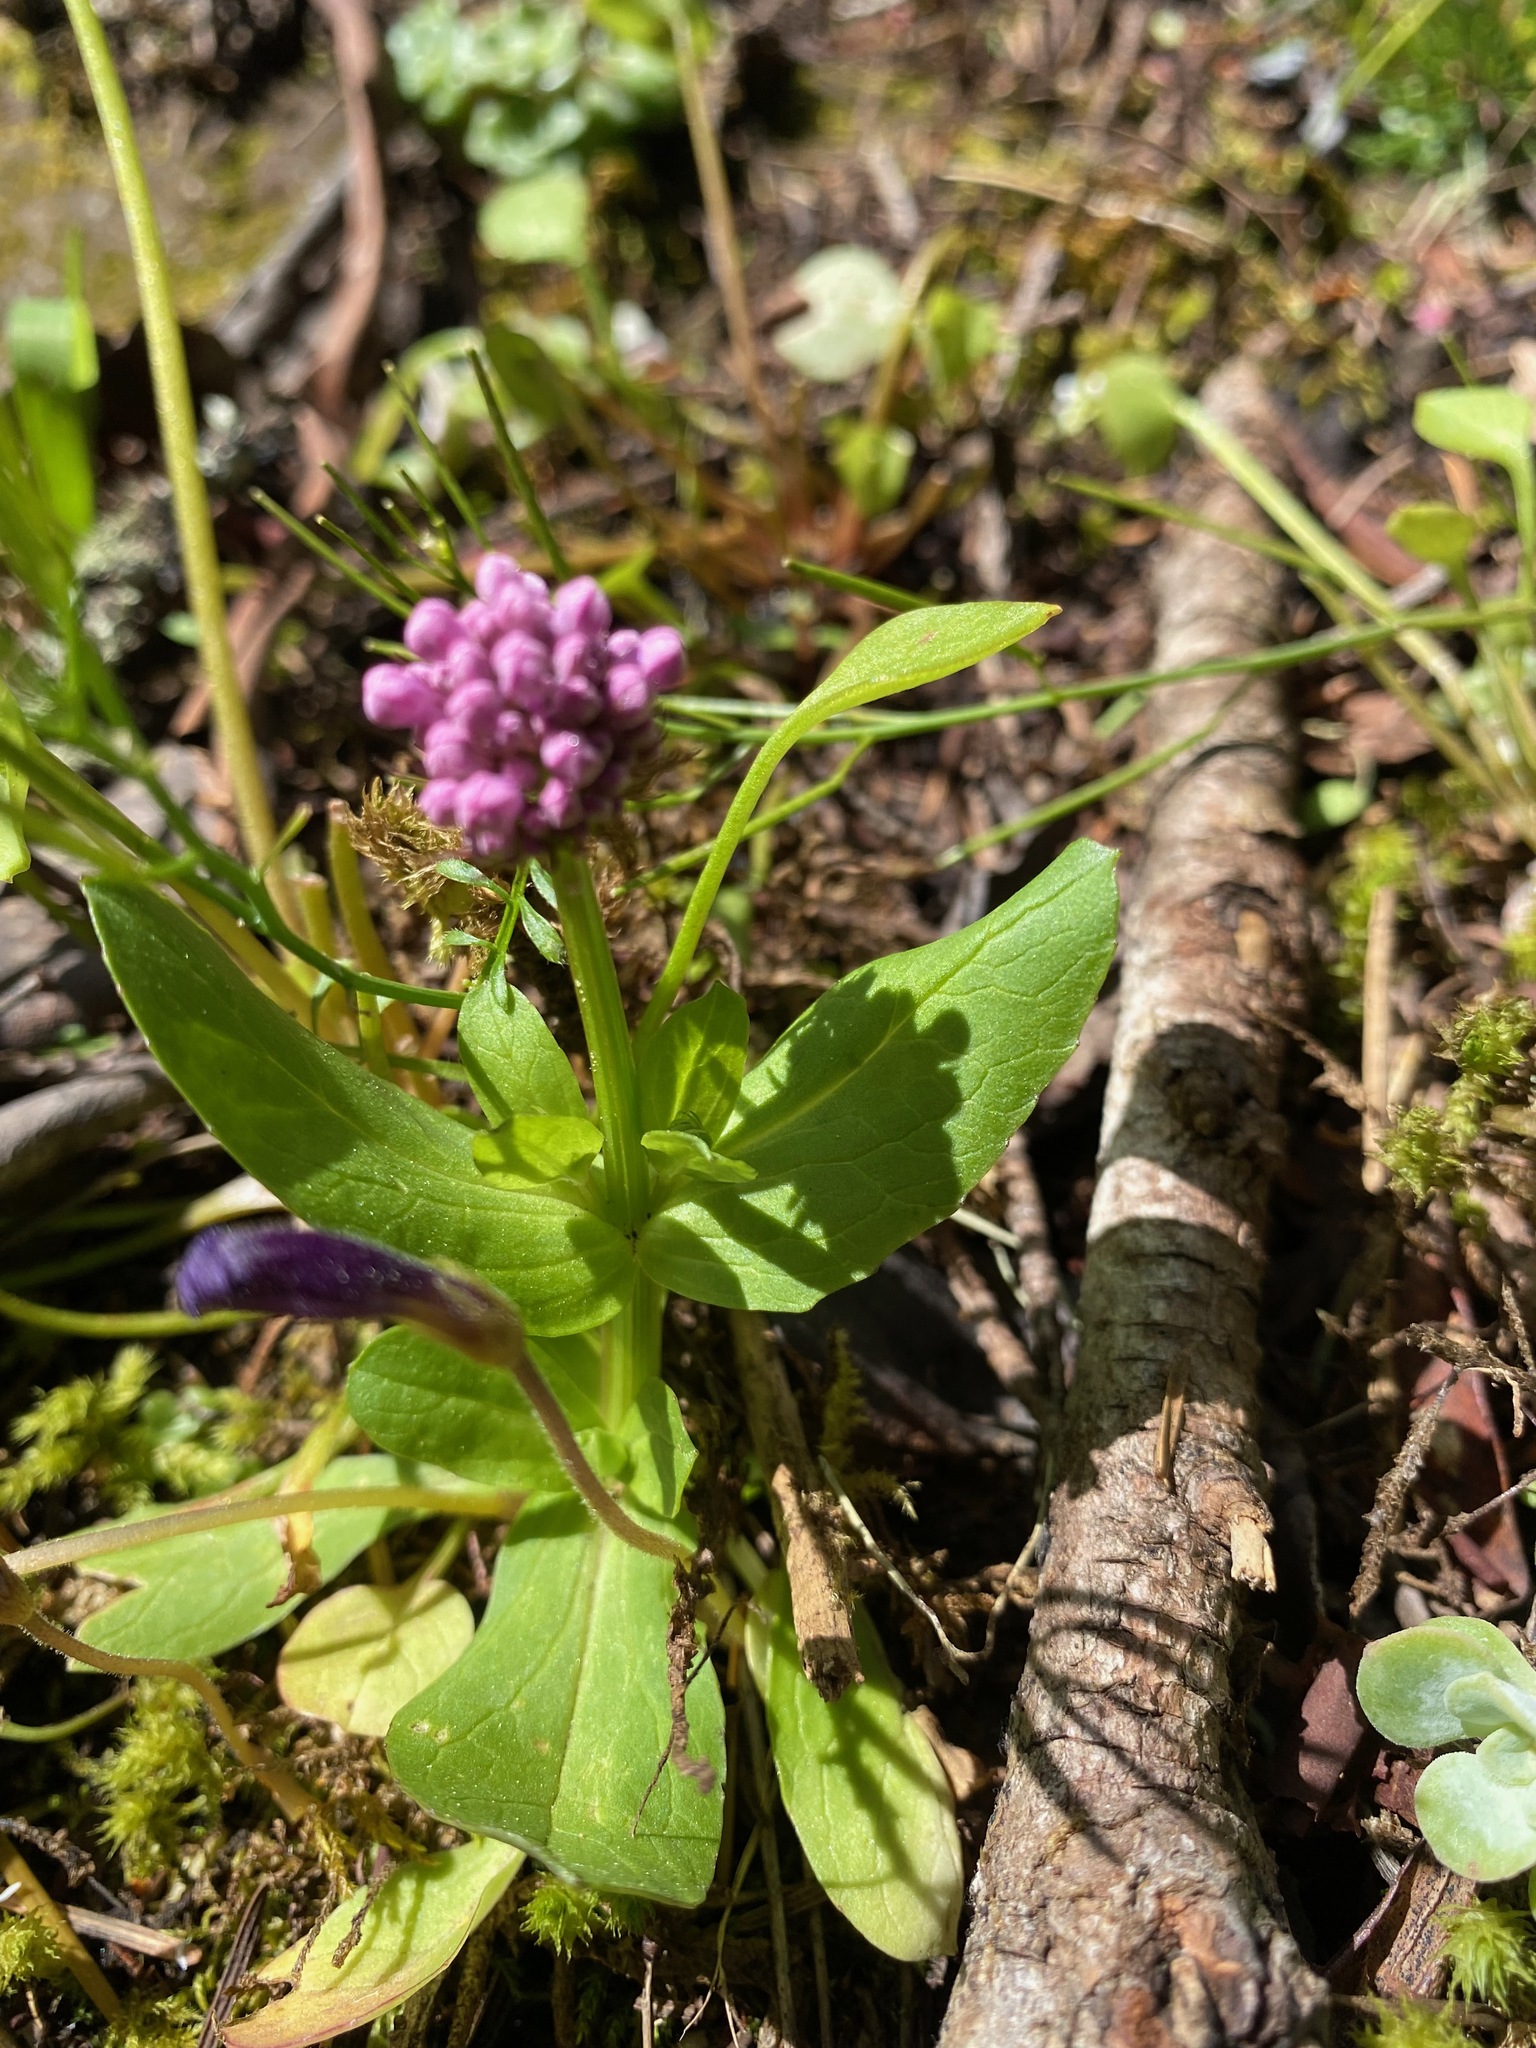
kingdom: Plantae
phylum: Tracheophyta
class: Magnoliopsida
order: Dipsacales
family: Caprifoliaceae
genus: Plectritis
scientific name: Plectritis congesta
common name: Pink plectritis
